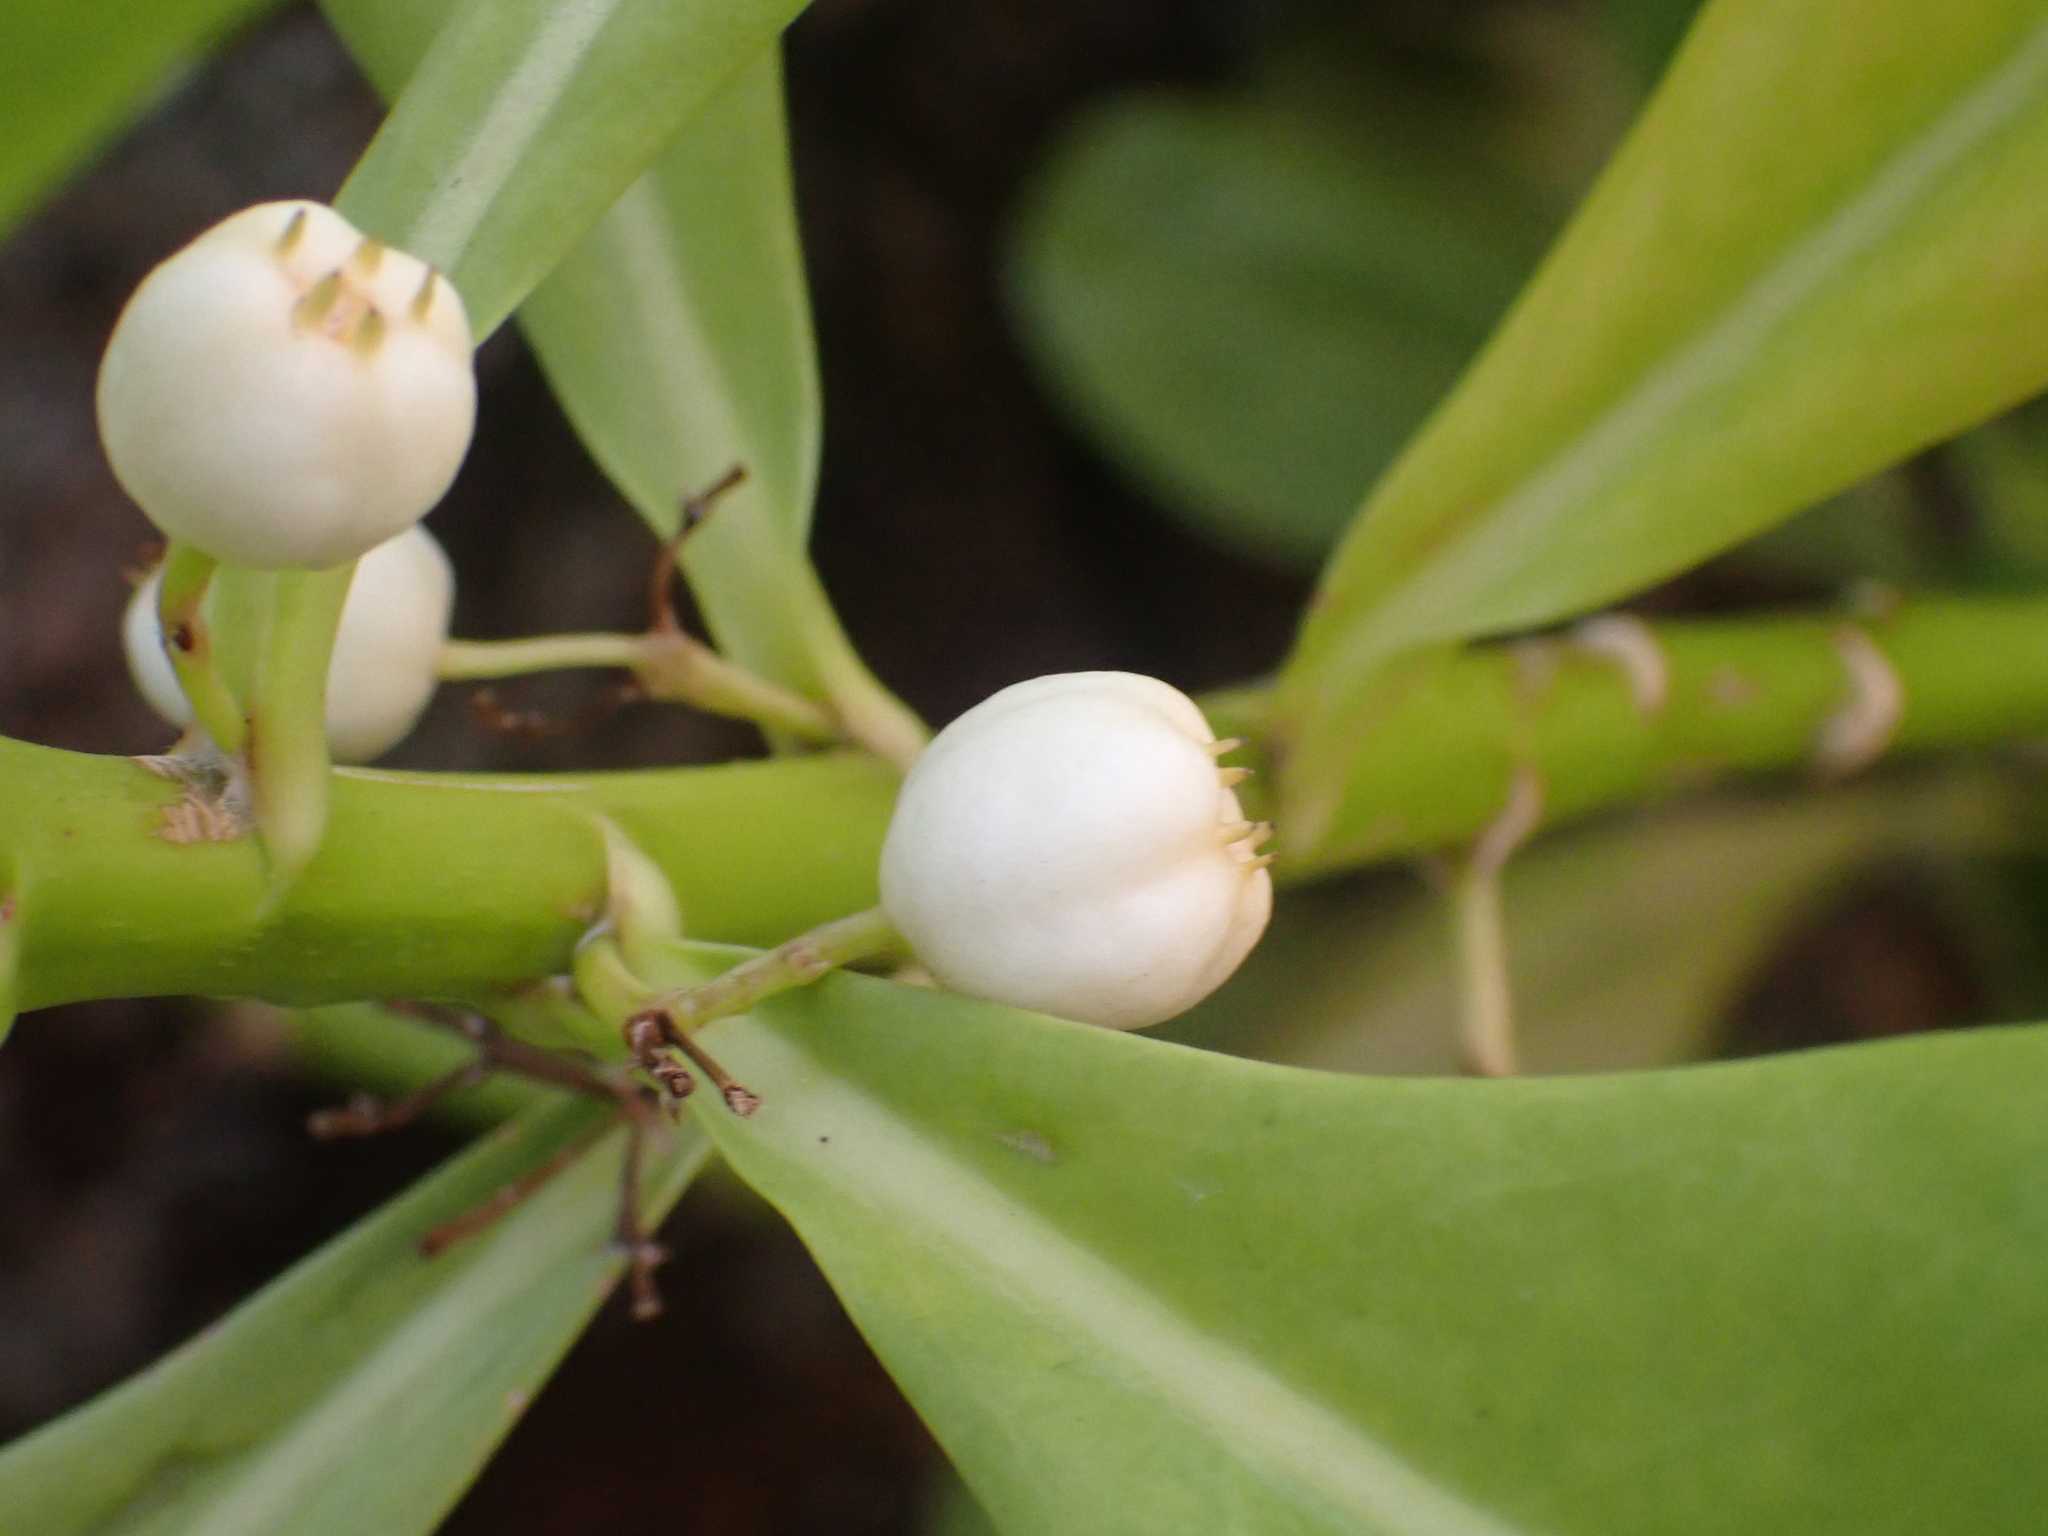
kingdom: Plantae
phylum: Tracheophyta
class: Magnoliopsida
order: Asterales
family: Goodeniaceae
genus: Scaevola
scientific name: Scaevola taccada
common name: Sea lettucetree
